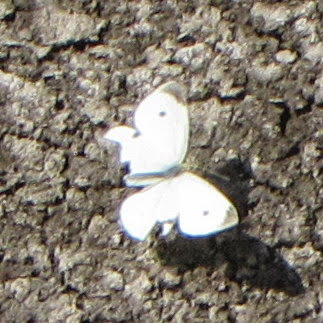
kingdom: Animalia
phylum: Arthropoda
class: Insecta
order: Lepidoptera
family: Pieridae
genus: Pieris
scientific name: Pieris rapae
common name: Small white
